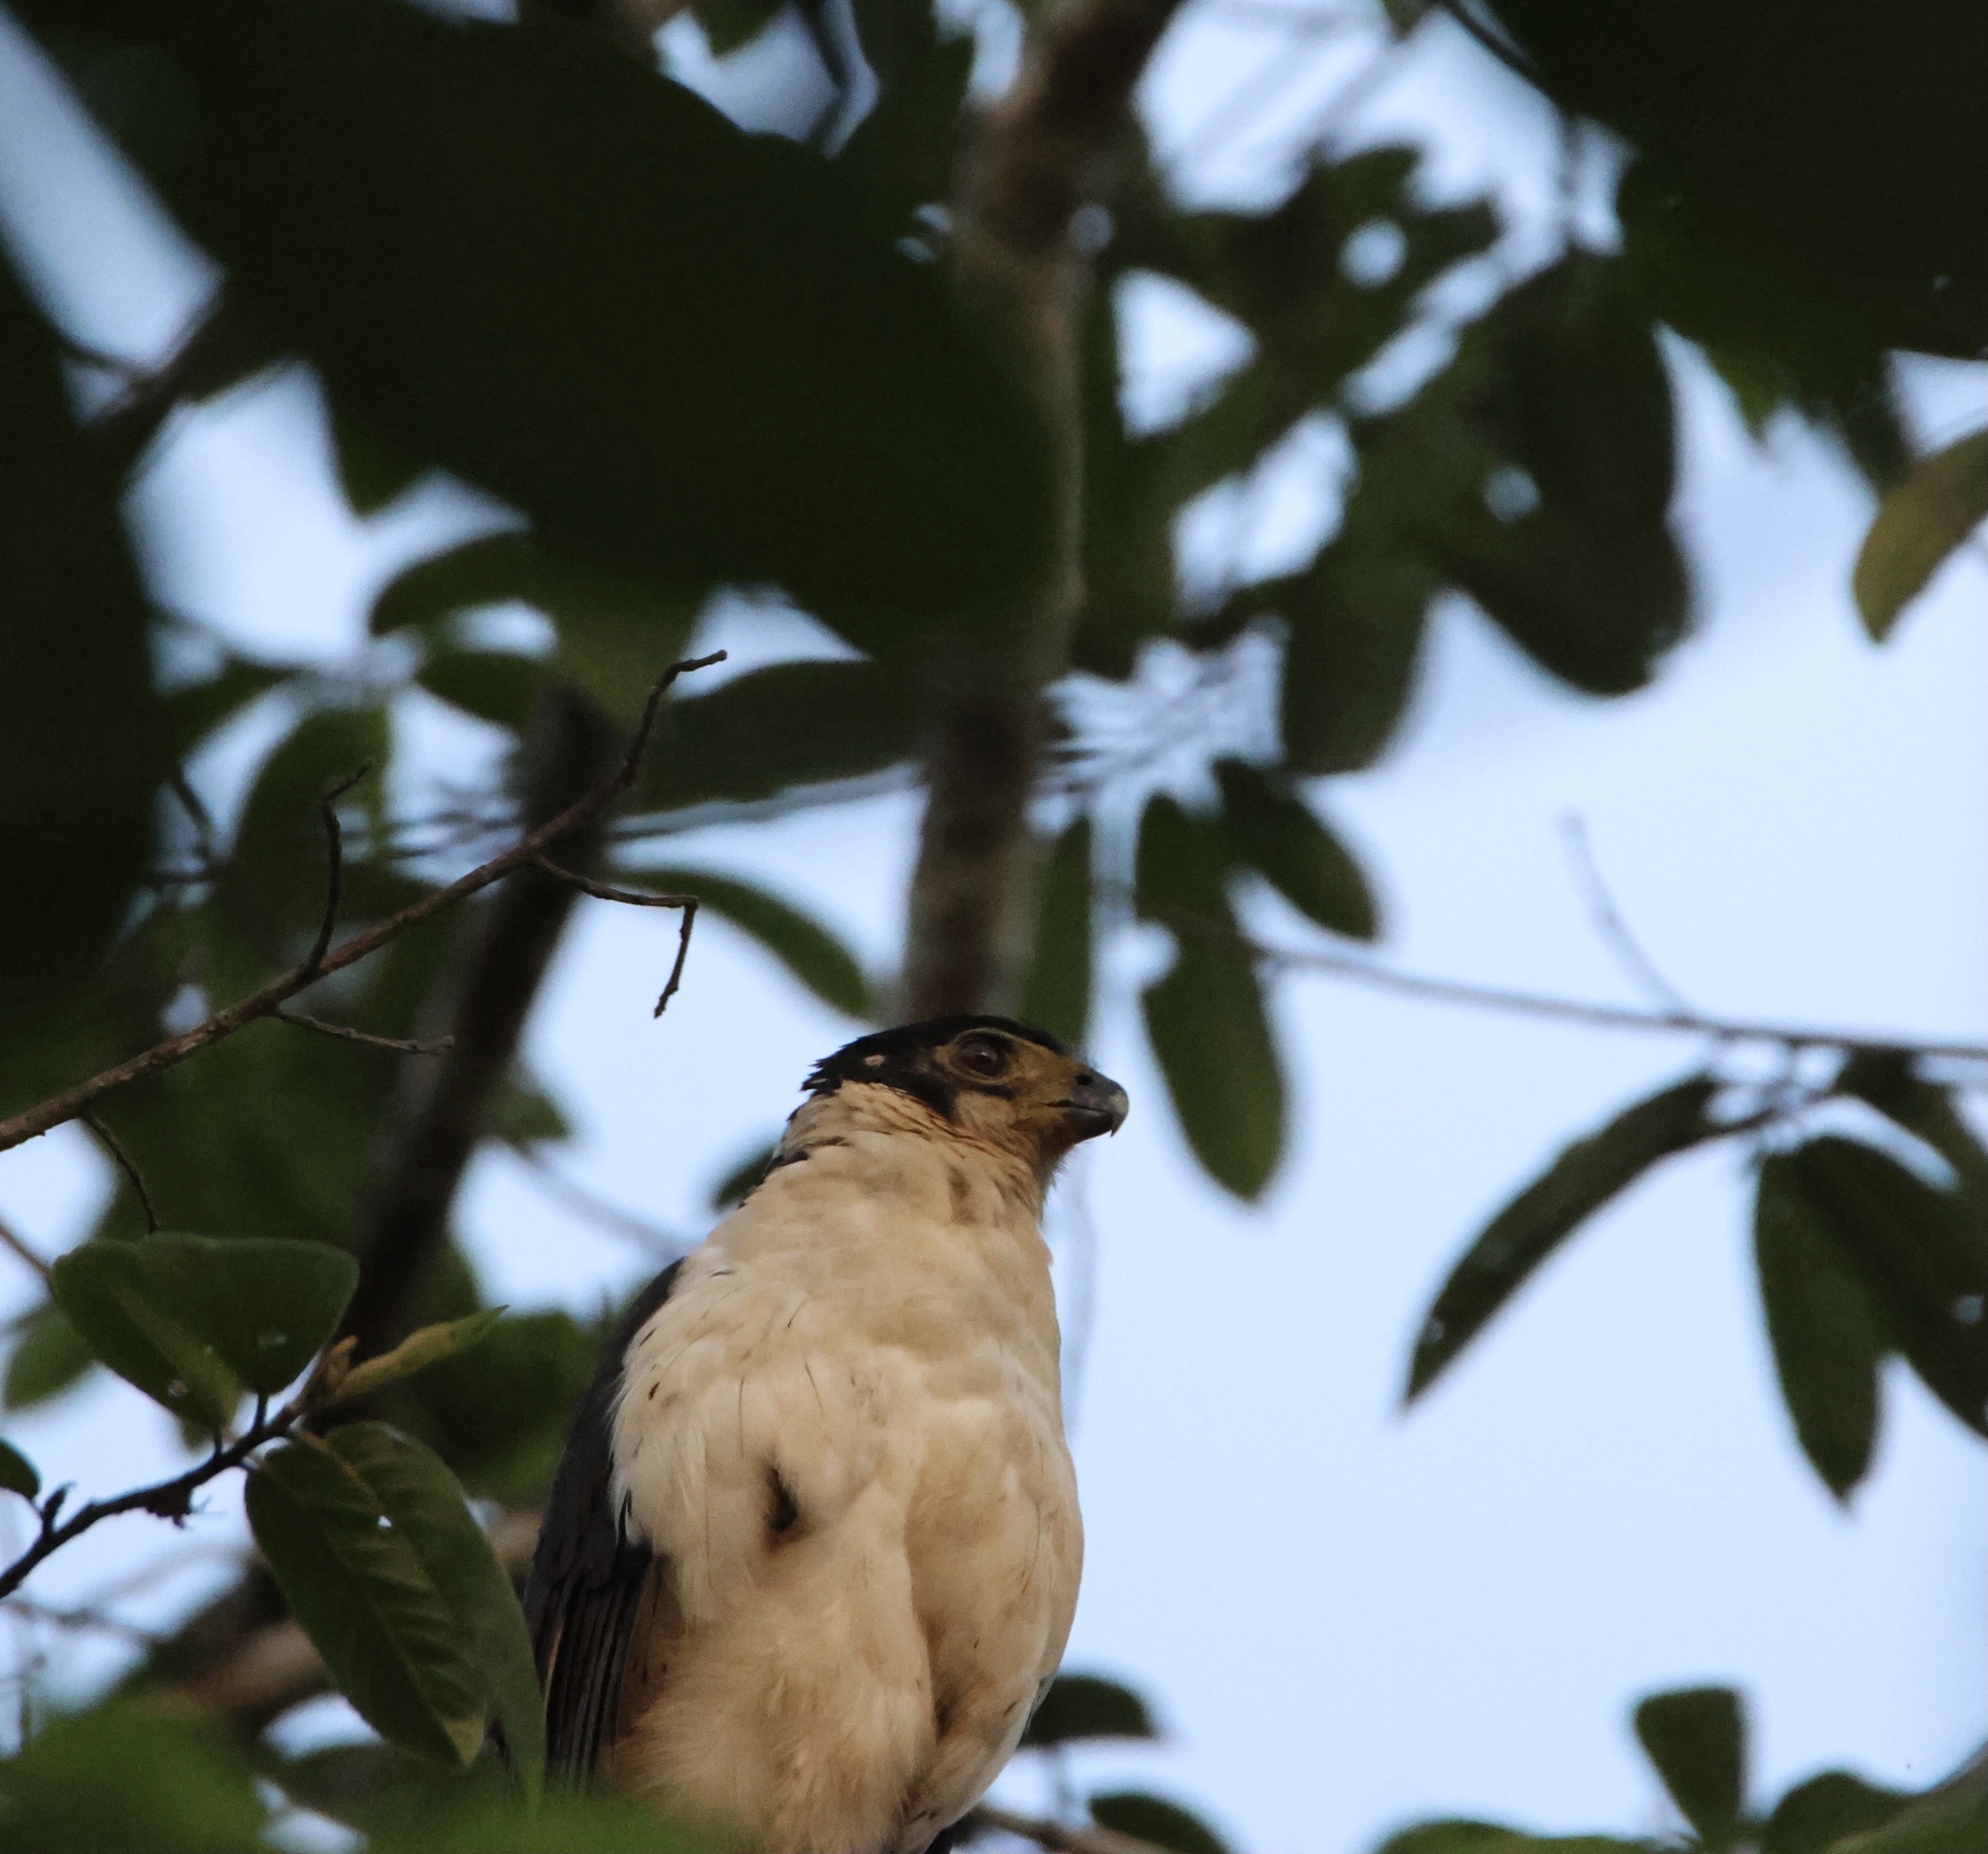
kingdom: Animalia
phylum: Chordata
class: Aves
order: Falconiformes
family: Falconidae
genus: Micrastur
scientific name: Micrastur semitorquatus
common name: Collared forest-falcon
